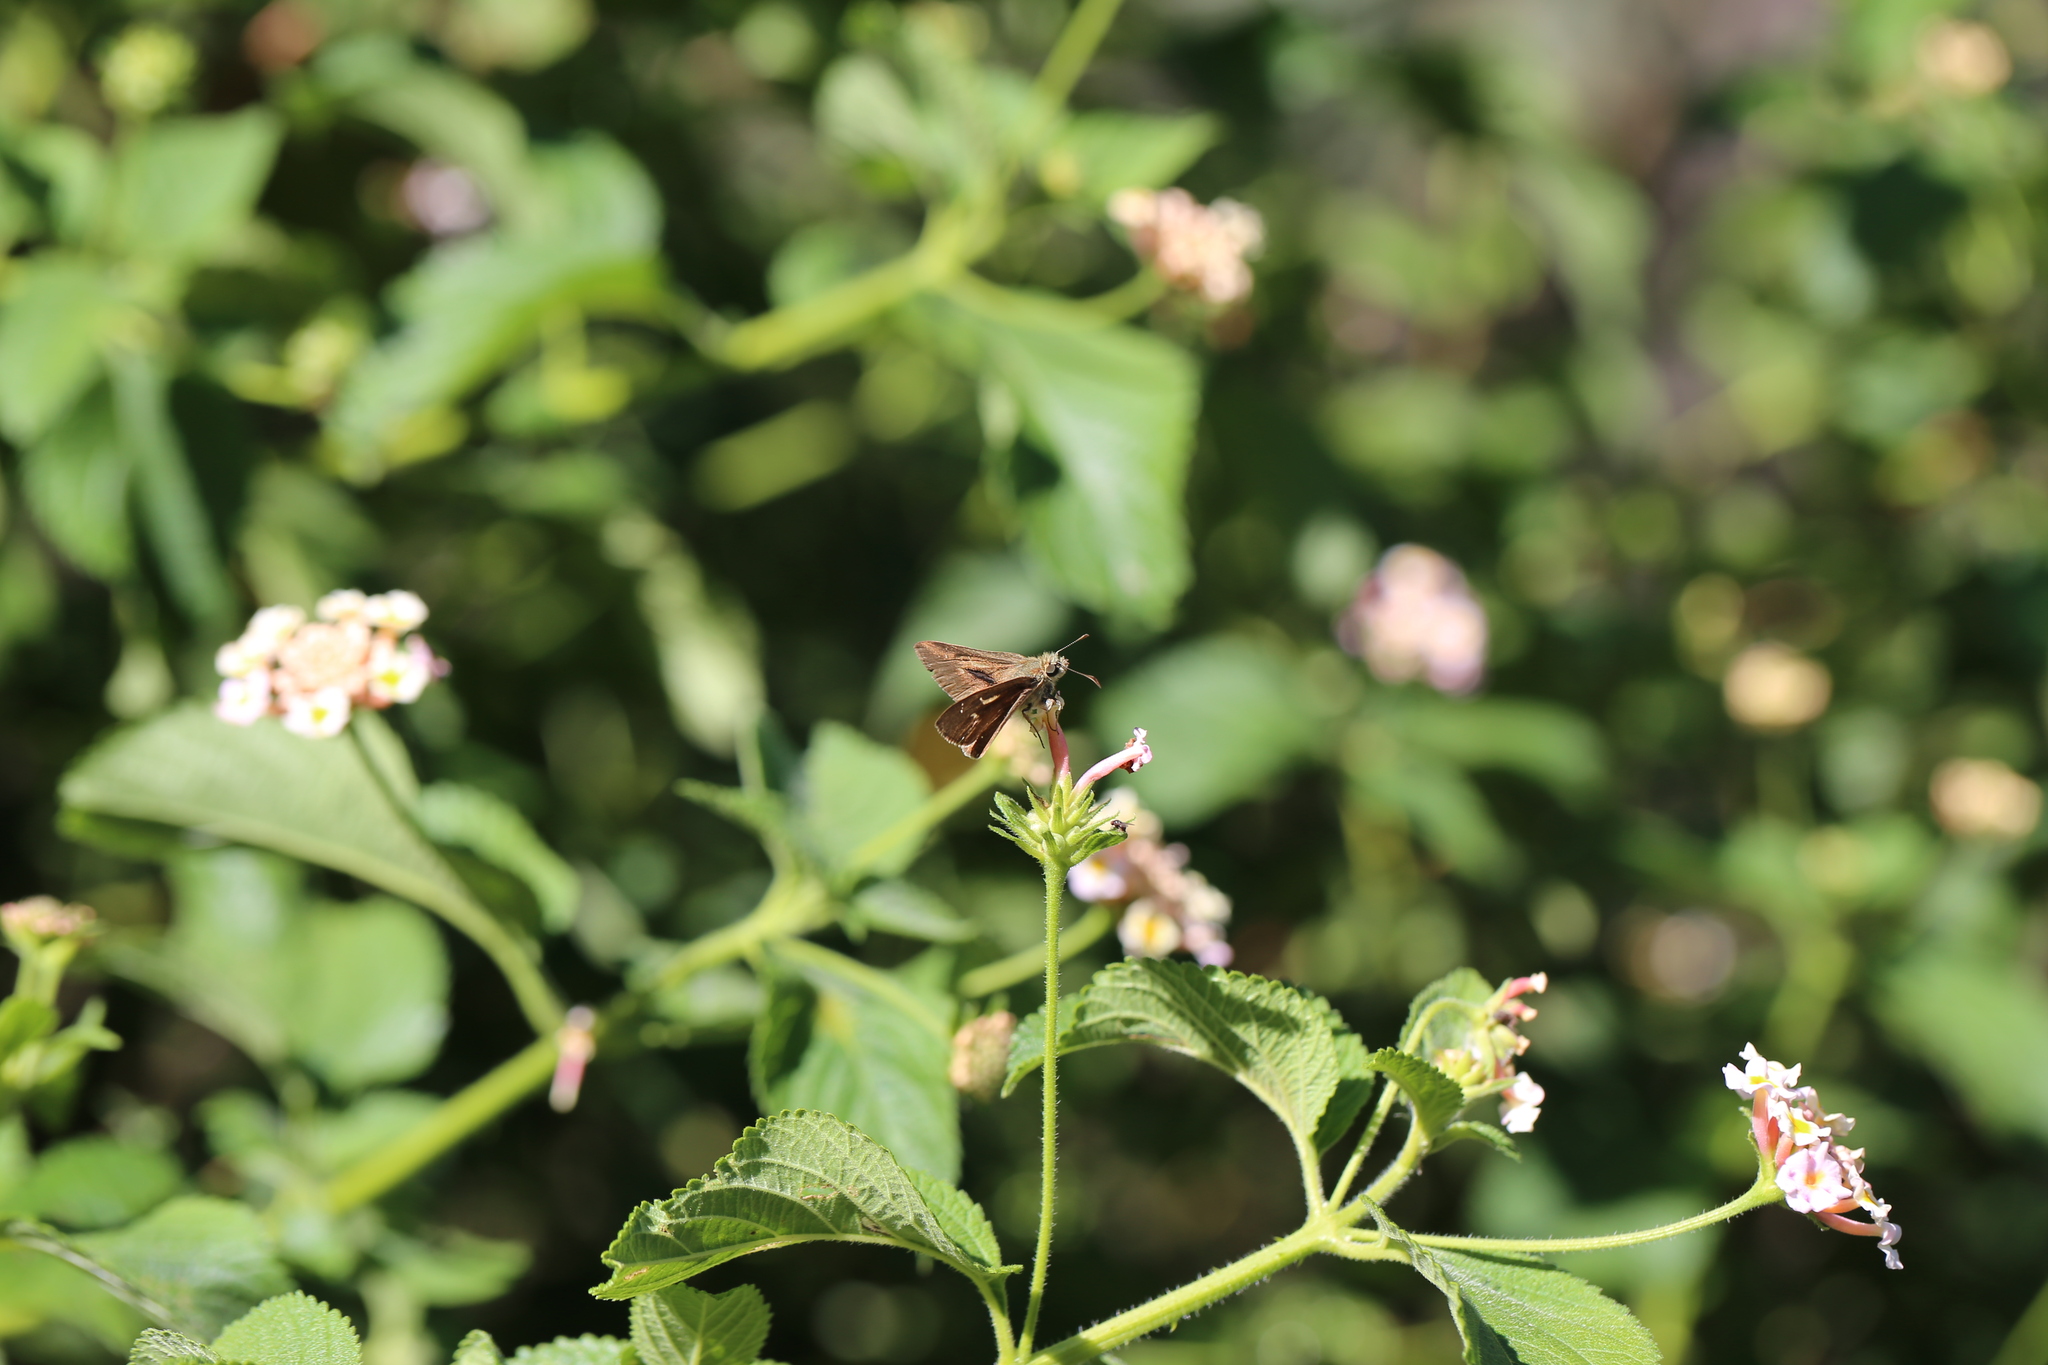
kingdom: Animalia
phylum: Arthropoda
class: Insecta
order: Lepidoptera
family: Hesperiidae
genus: Toxidia
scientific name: Toxidia
